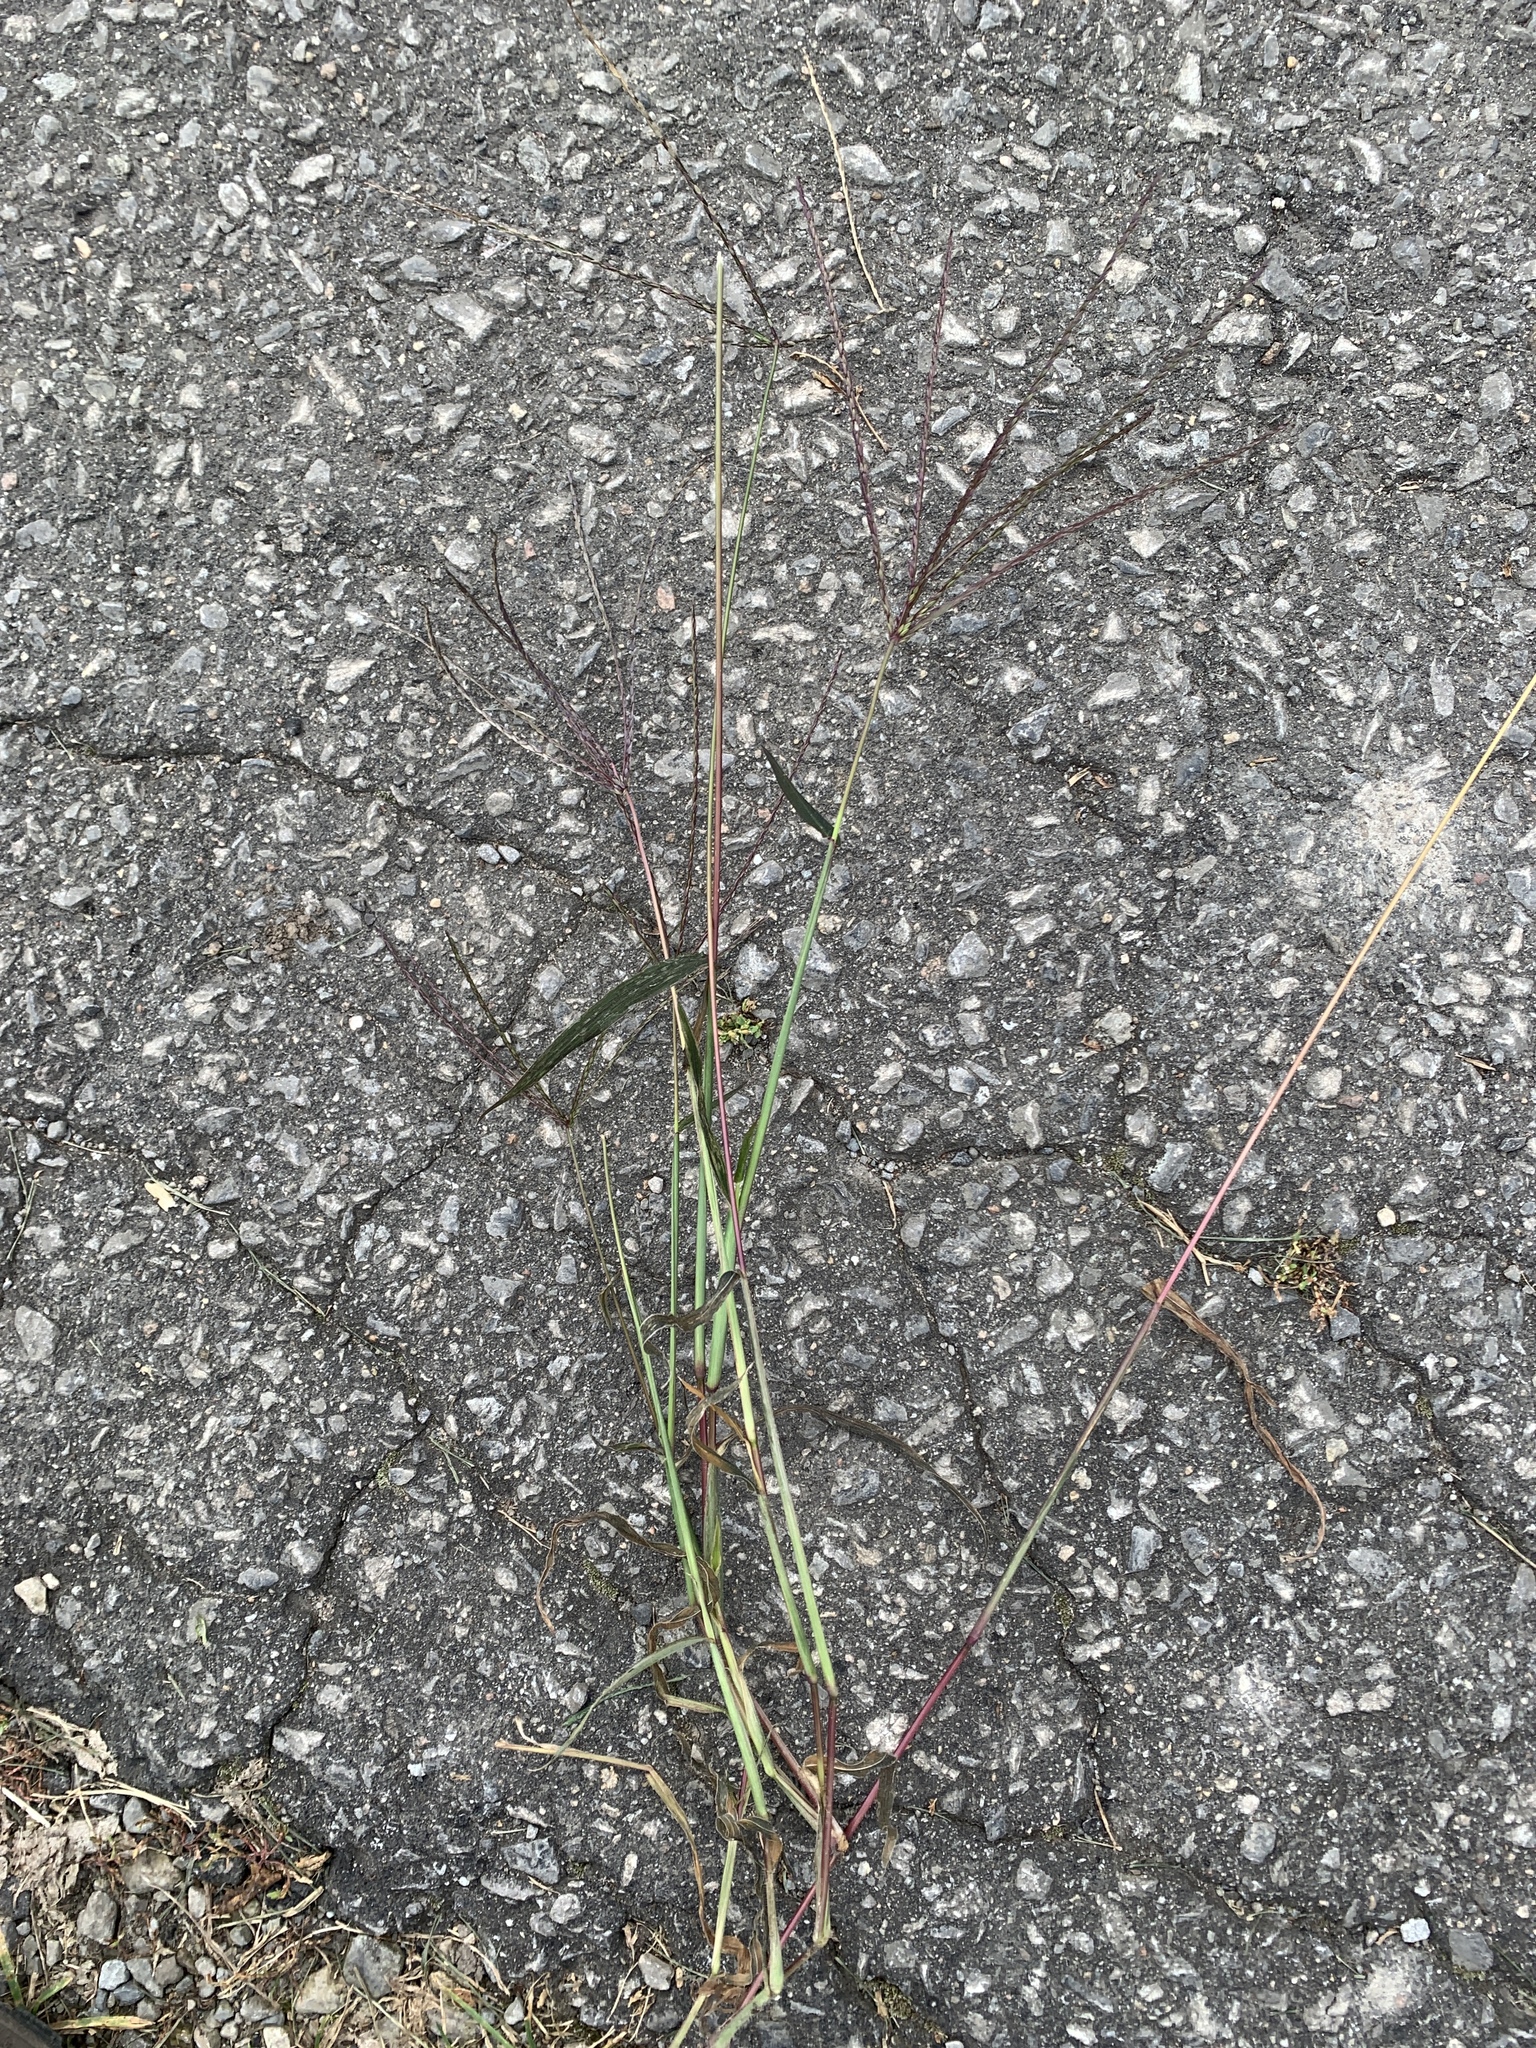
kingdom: Plantae
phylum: Tracheophyta
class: Liliopsida
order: Poales
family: Poaceae
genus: Digitaria
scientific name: Digitaria sanguinalis
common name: Hairy crabgrass
